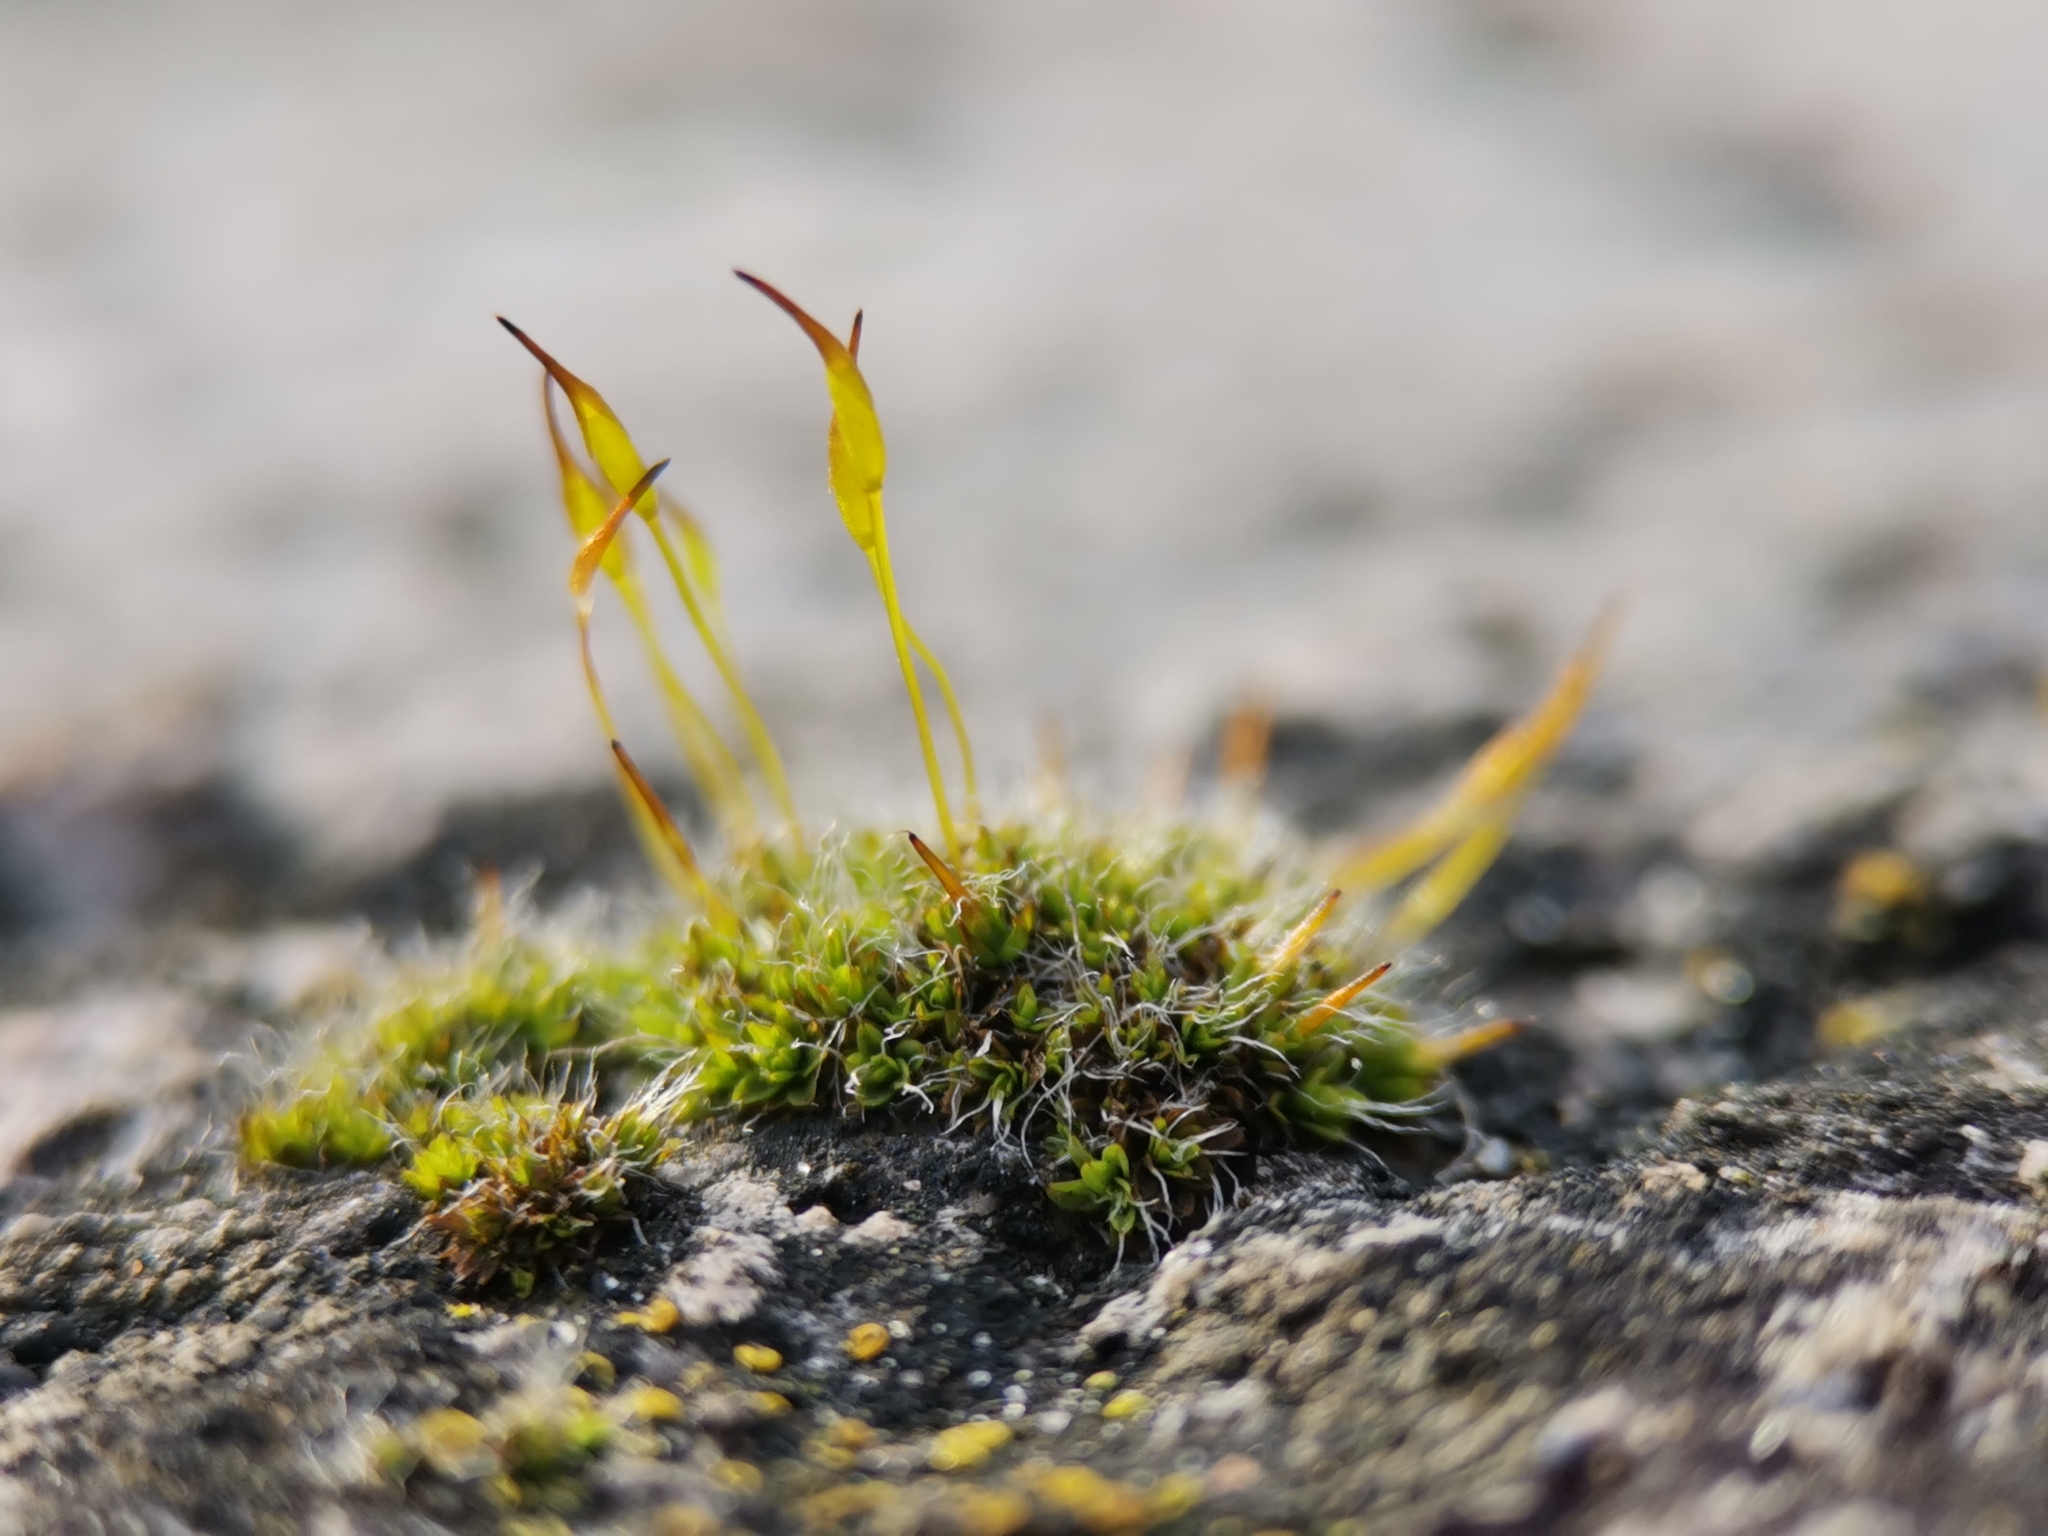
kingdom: Plantae
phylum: Bryophyta
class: Bryopsida
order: Pottiales
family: Pottiaceae
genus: Tortula
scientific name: Tortula muralis
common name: Wall screw-moss
